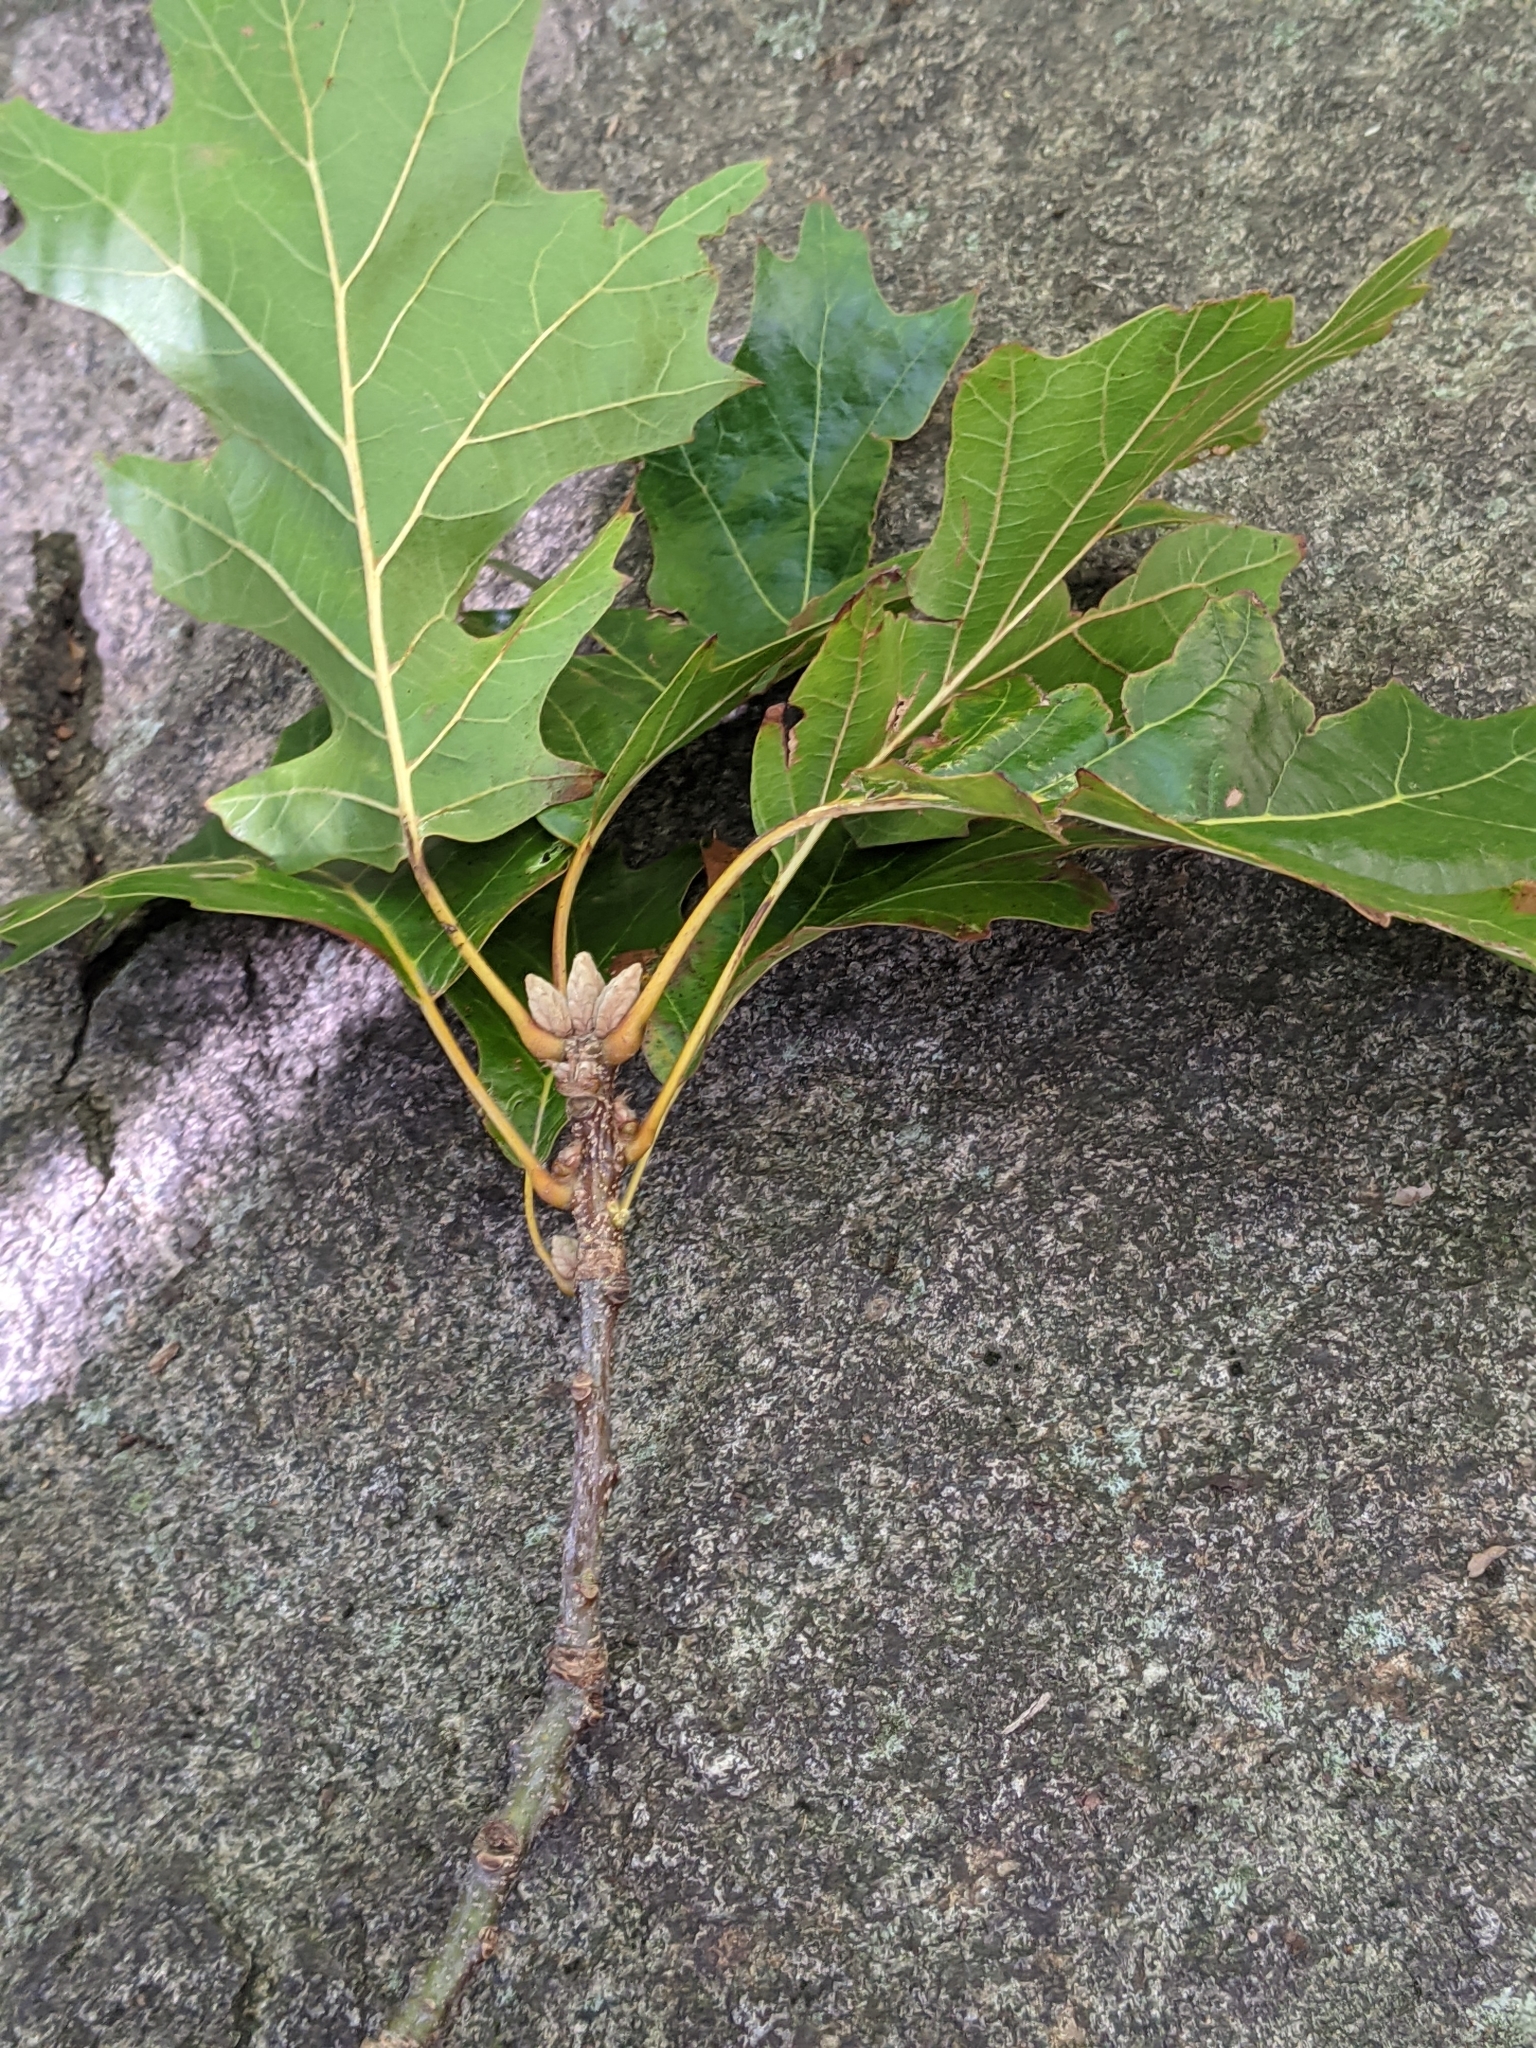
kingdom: Plantae
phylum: Tracheophyta
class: Magnoliopsida
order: Fagales
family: Fagaceae
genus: Quercus
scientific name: Quercus velutina
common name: Black oak
